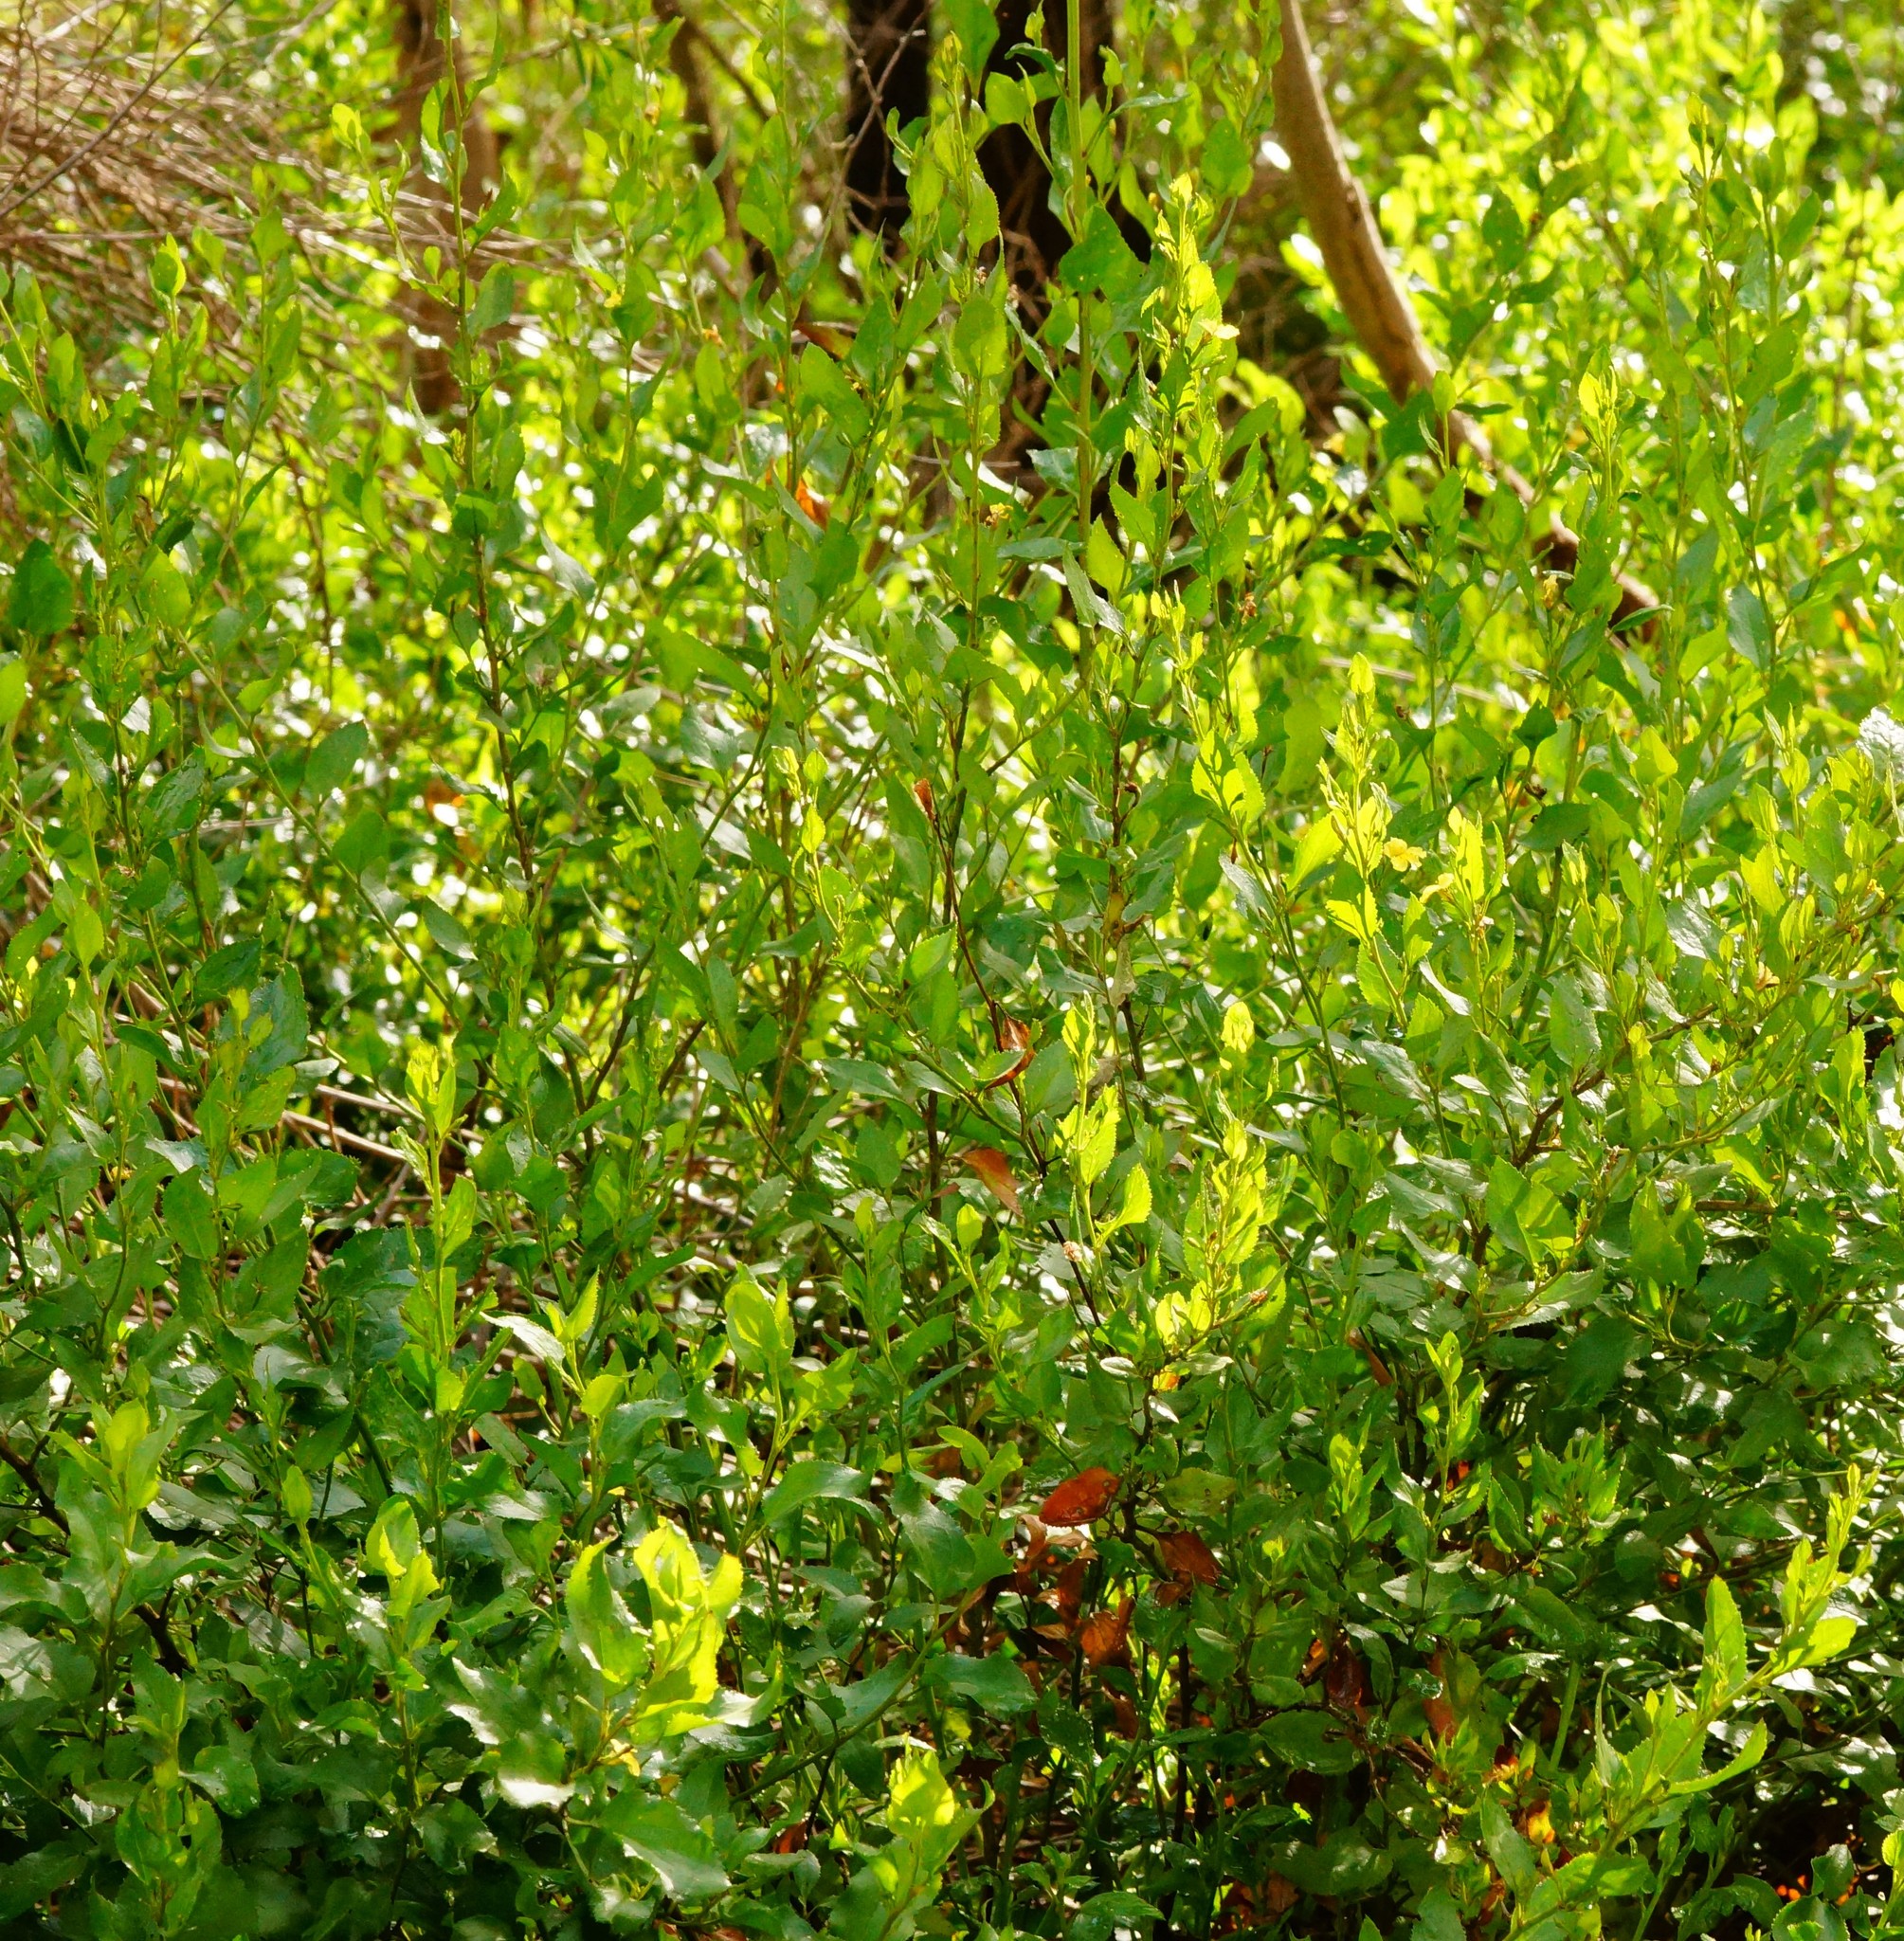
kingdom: Plantae
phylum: Tracheophyta
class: Magnoliopsida
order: Asterales
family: Goodeniaceae
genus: Goodenia
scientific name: Goodenia ovata
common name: Hop goodenia
